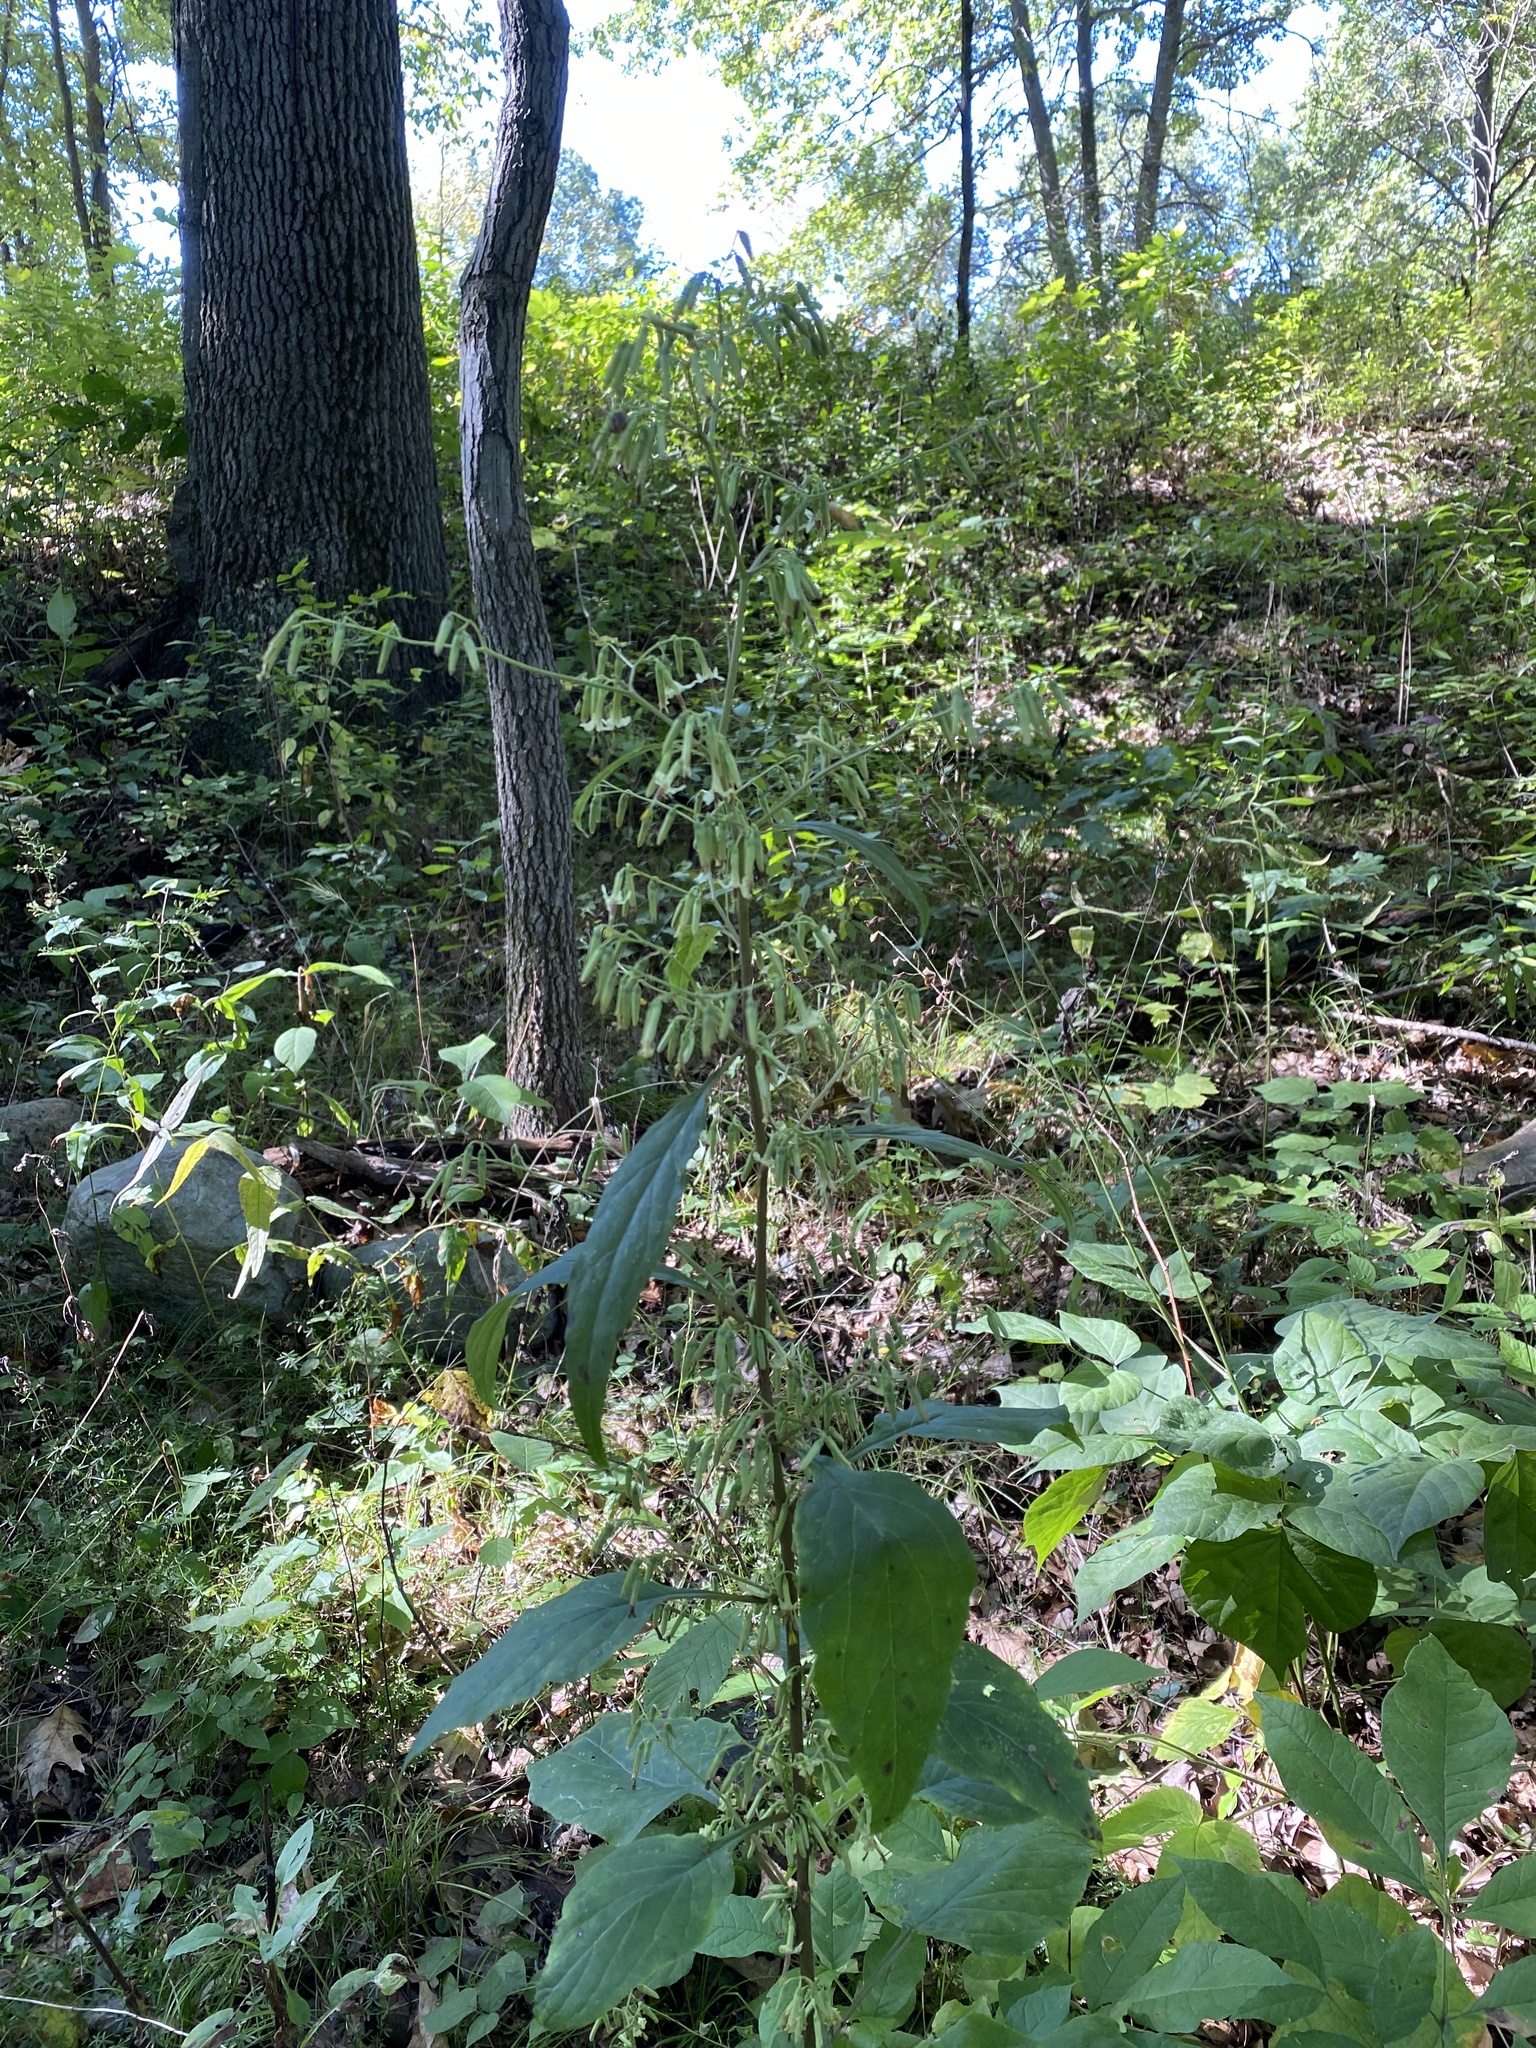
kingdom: Plantae
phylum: Tracheophyta
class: Magnoliopsida
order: Asterales
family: Asteraceae
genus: Nabalus
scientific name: Nabalus albus
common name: White rattlesnakeroot
